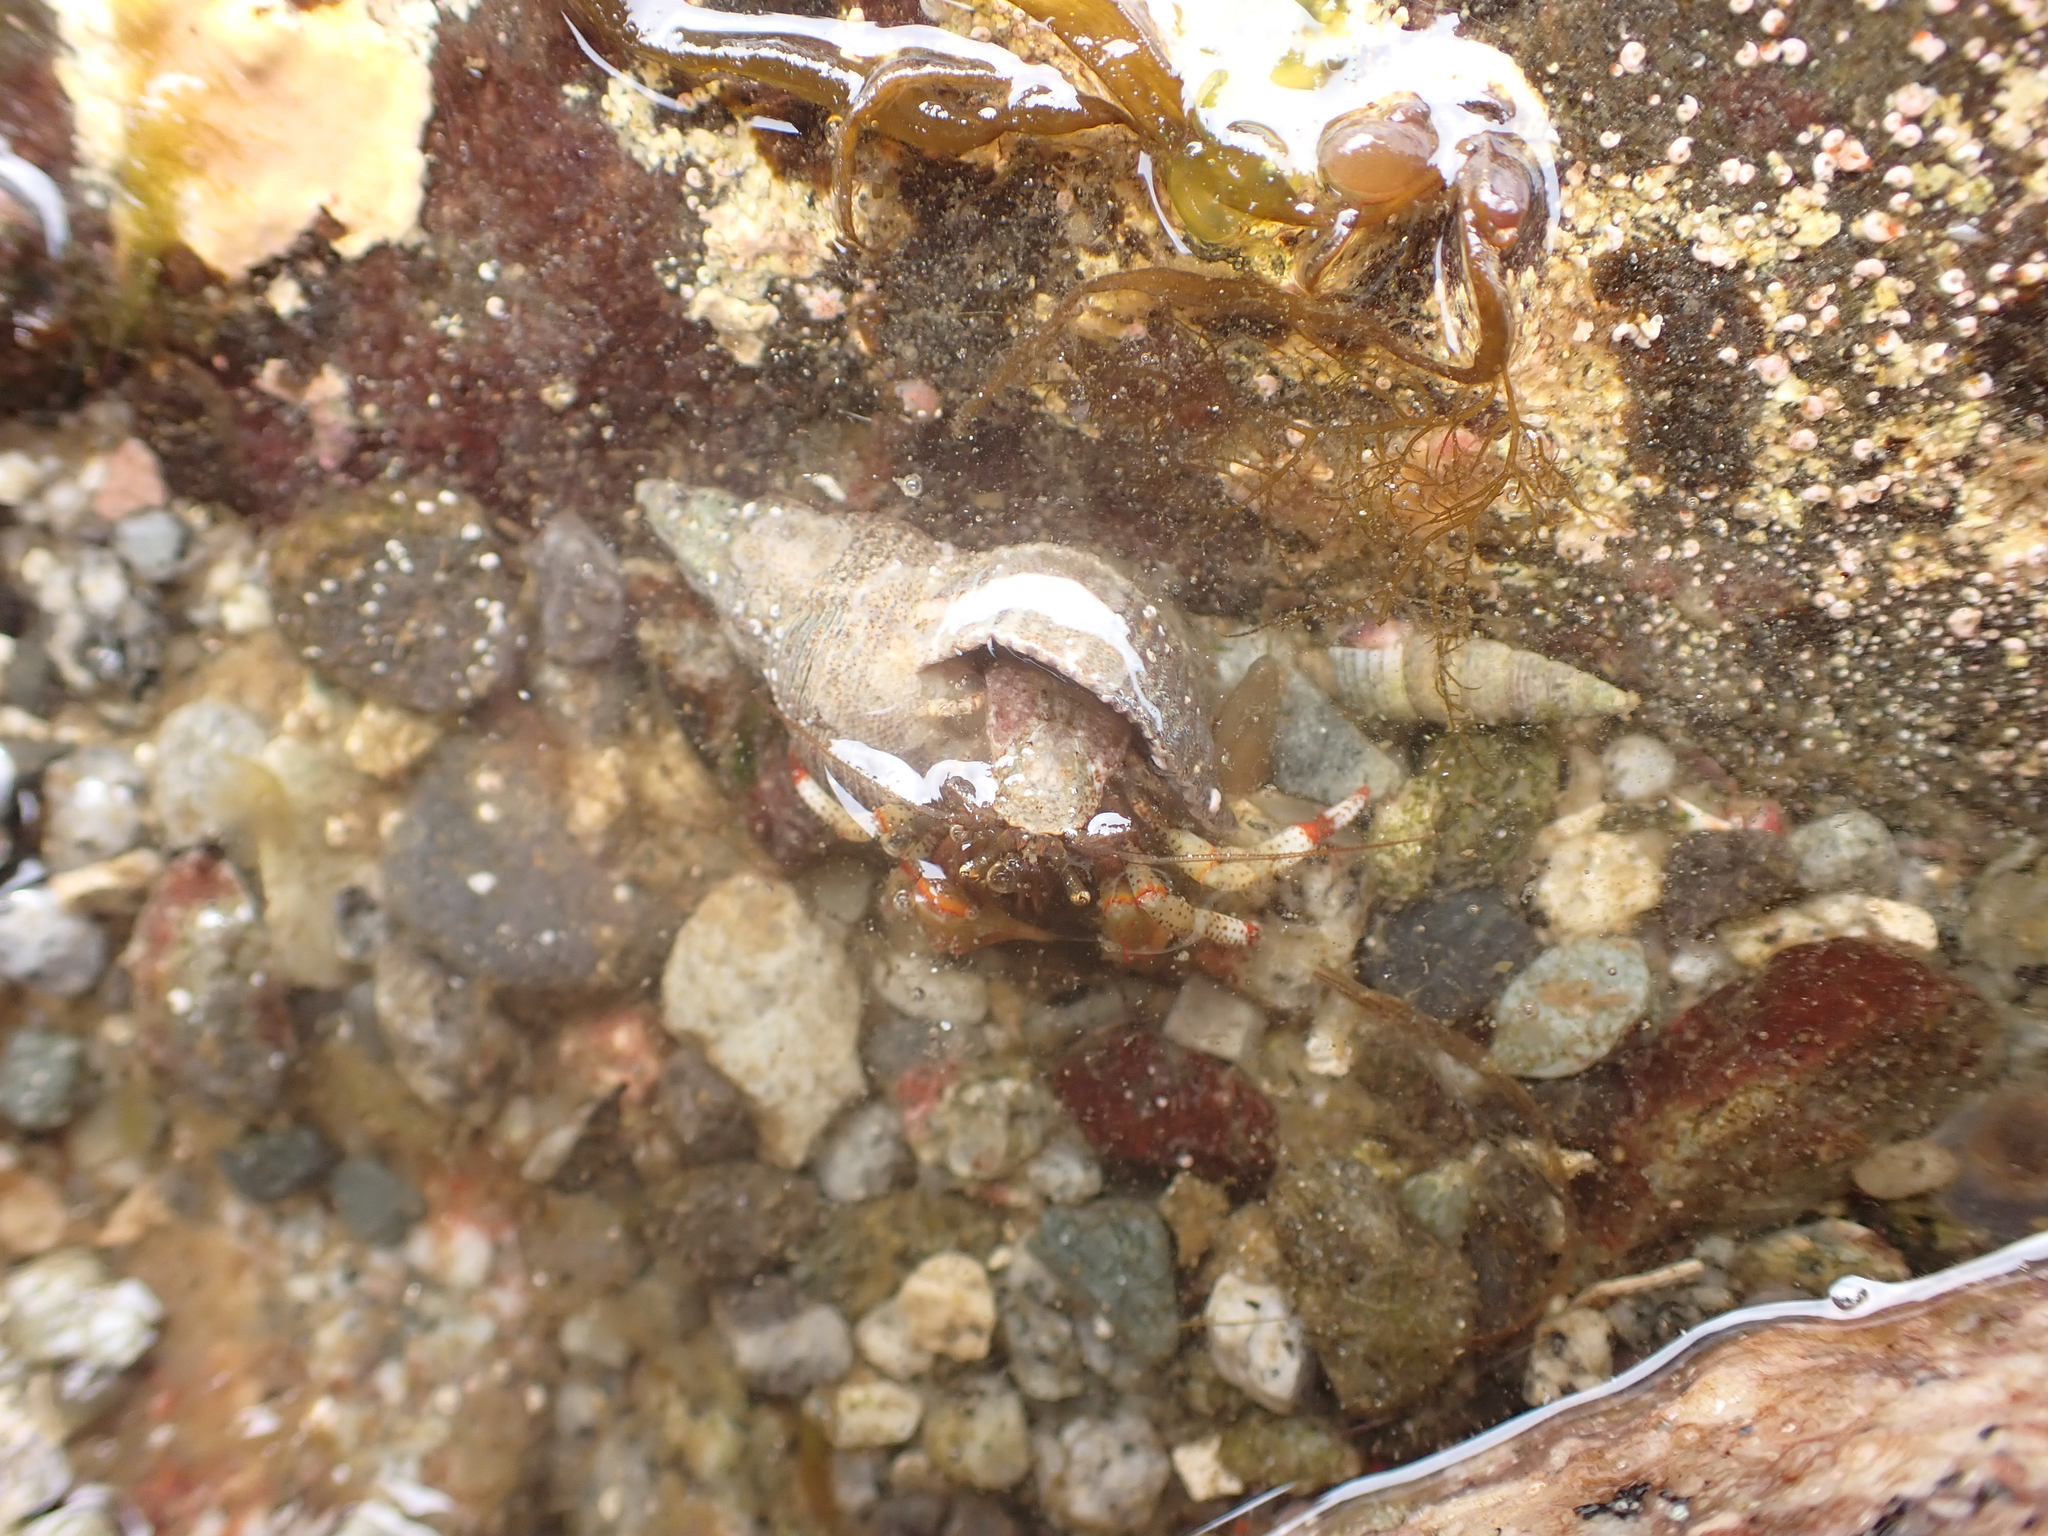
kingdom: Animalia
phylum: Arthropoda
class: Malacostraca
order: Decapoda
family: Paguridae
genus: Pagurus
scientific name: Pagurus beringanus
